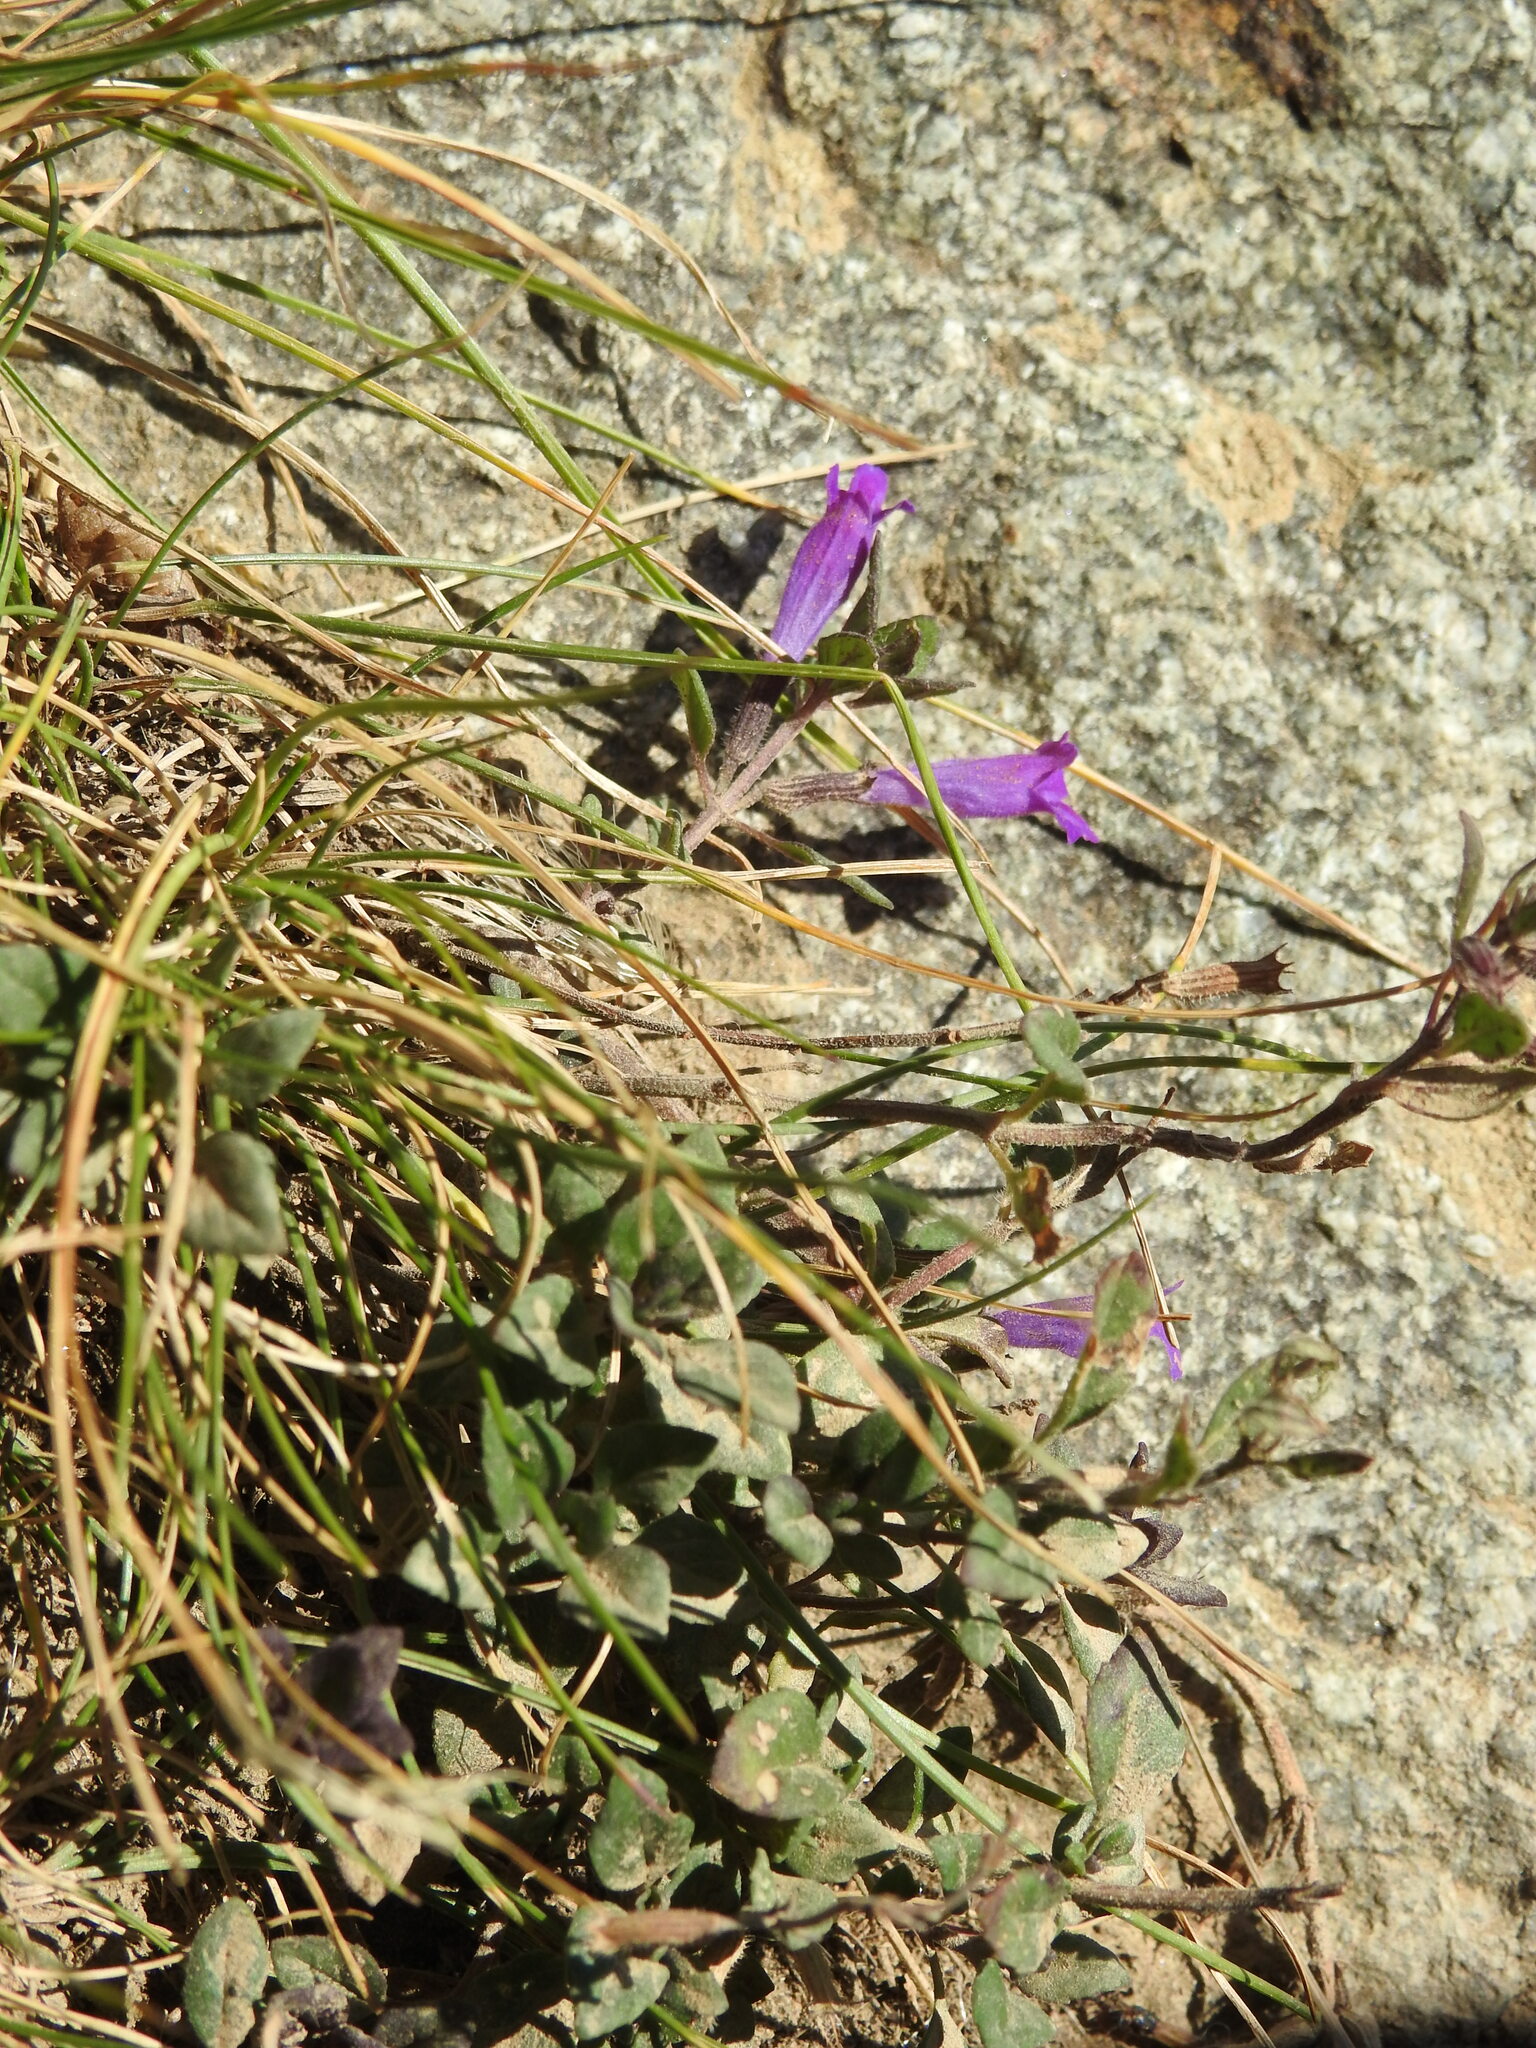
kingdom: Plantae
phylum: Tracheophyta
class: Magnoliopsida
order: Lamiales
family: Lamiaceae
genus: Clinopodium
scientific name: Clinopodium alpinum
